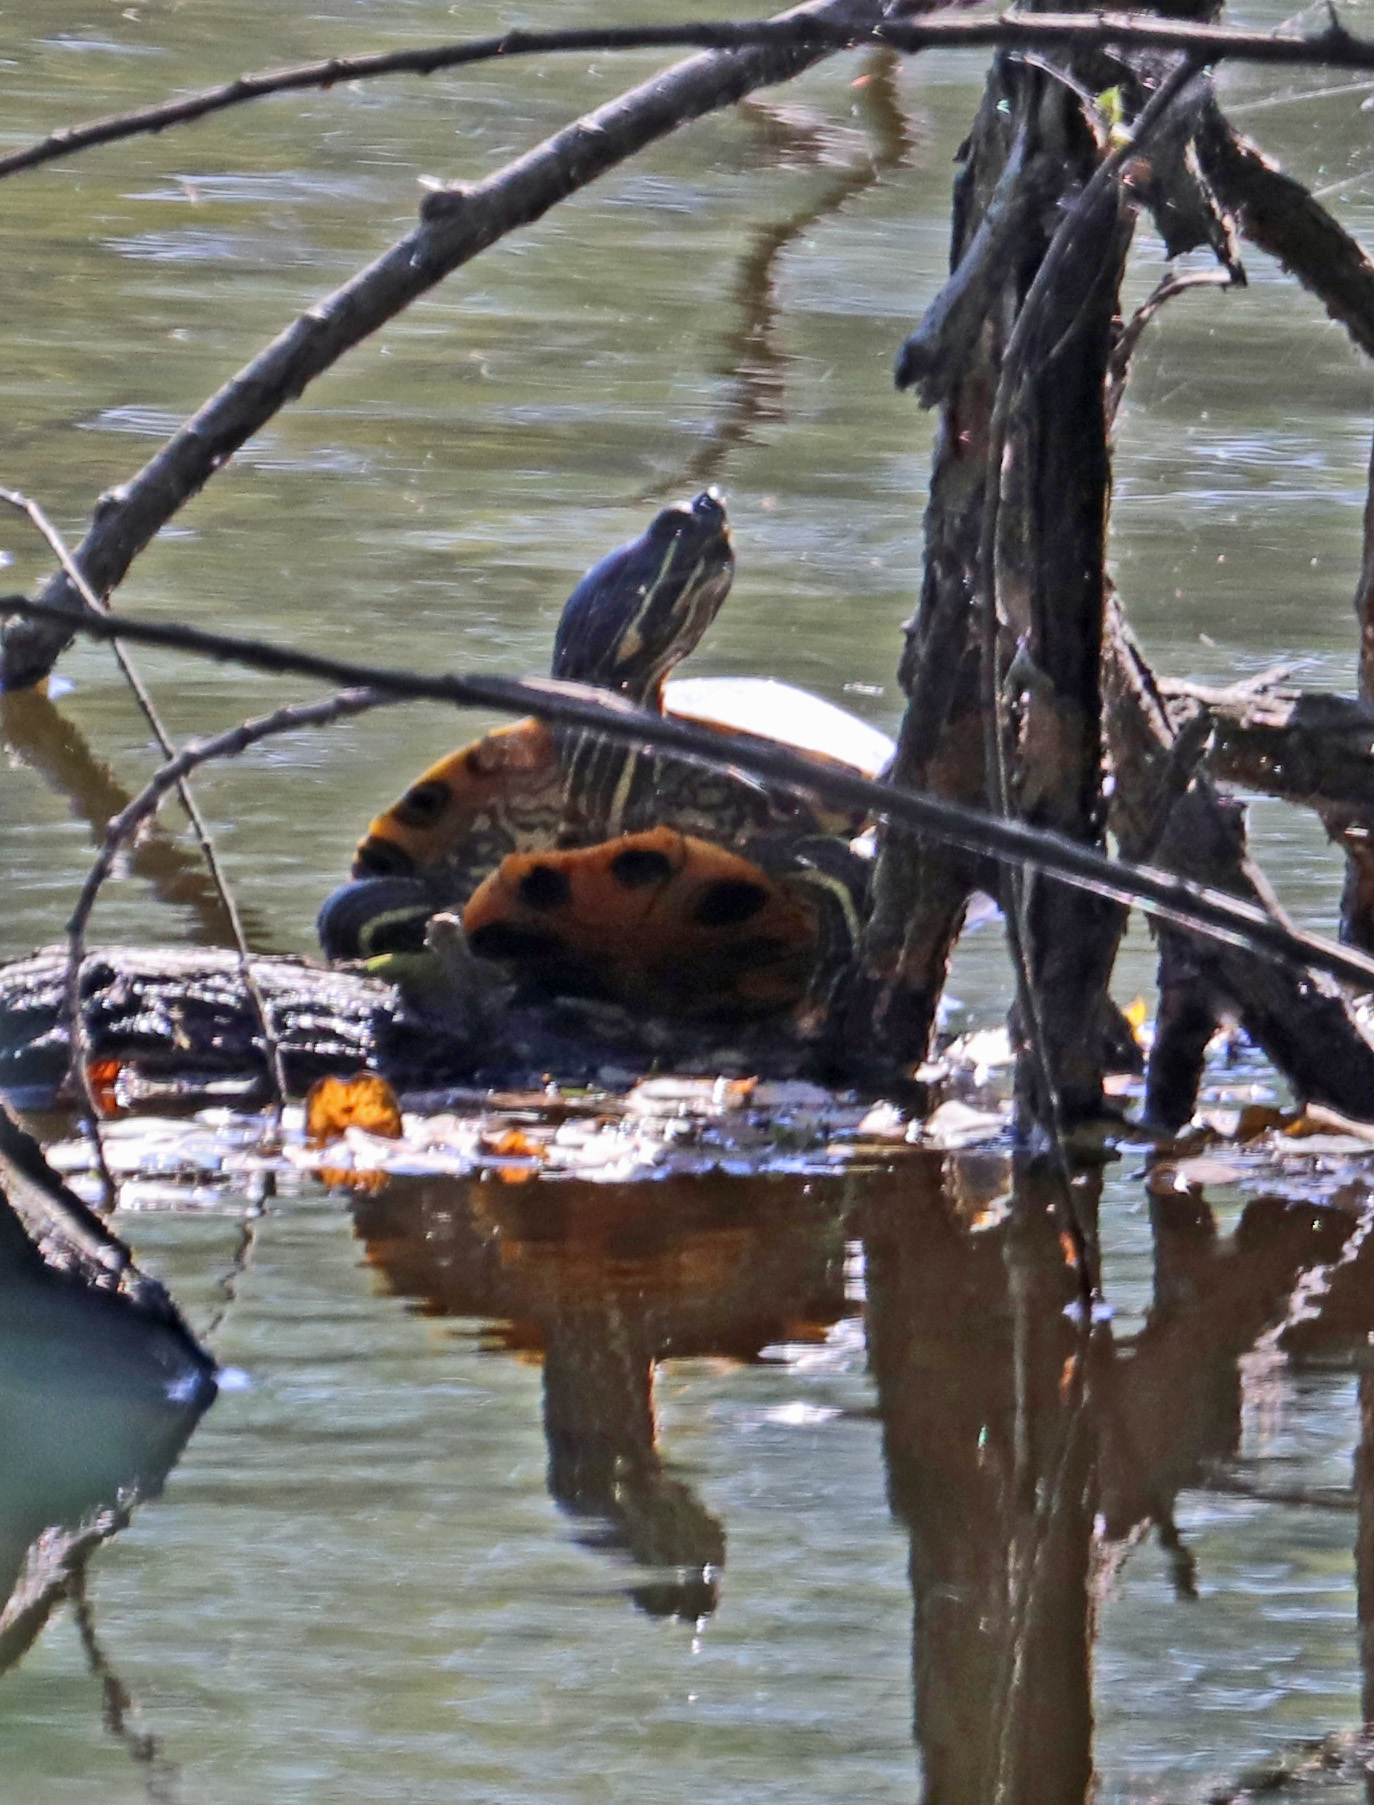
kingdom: Animalia
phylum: Chordata
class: Testudines
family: Emydidae
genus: Trachemys
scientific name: Trachemys scripta
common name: Slider
